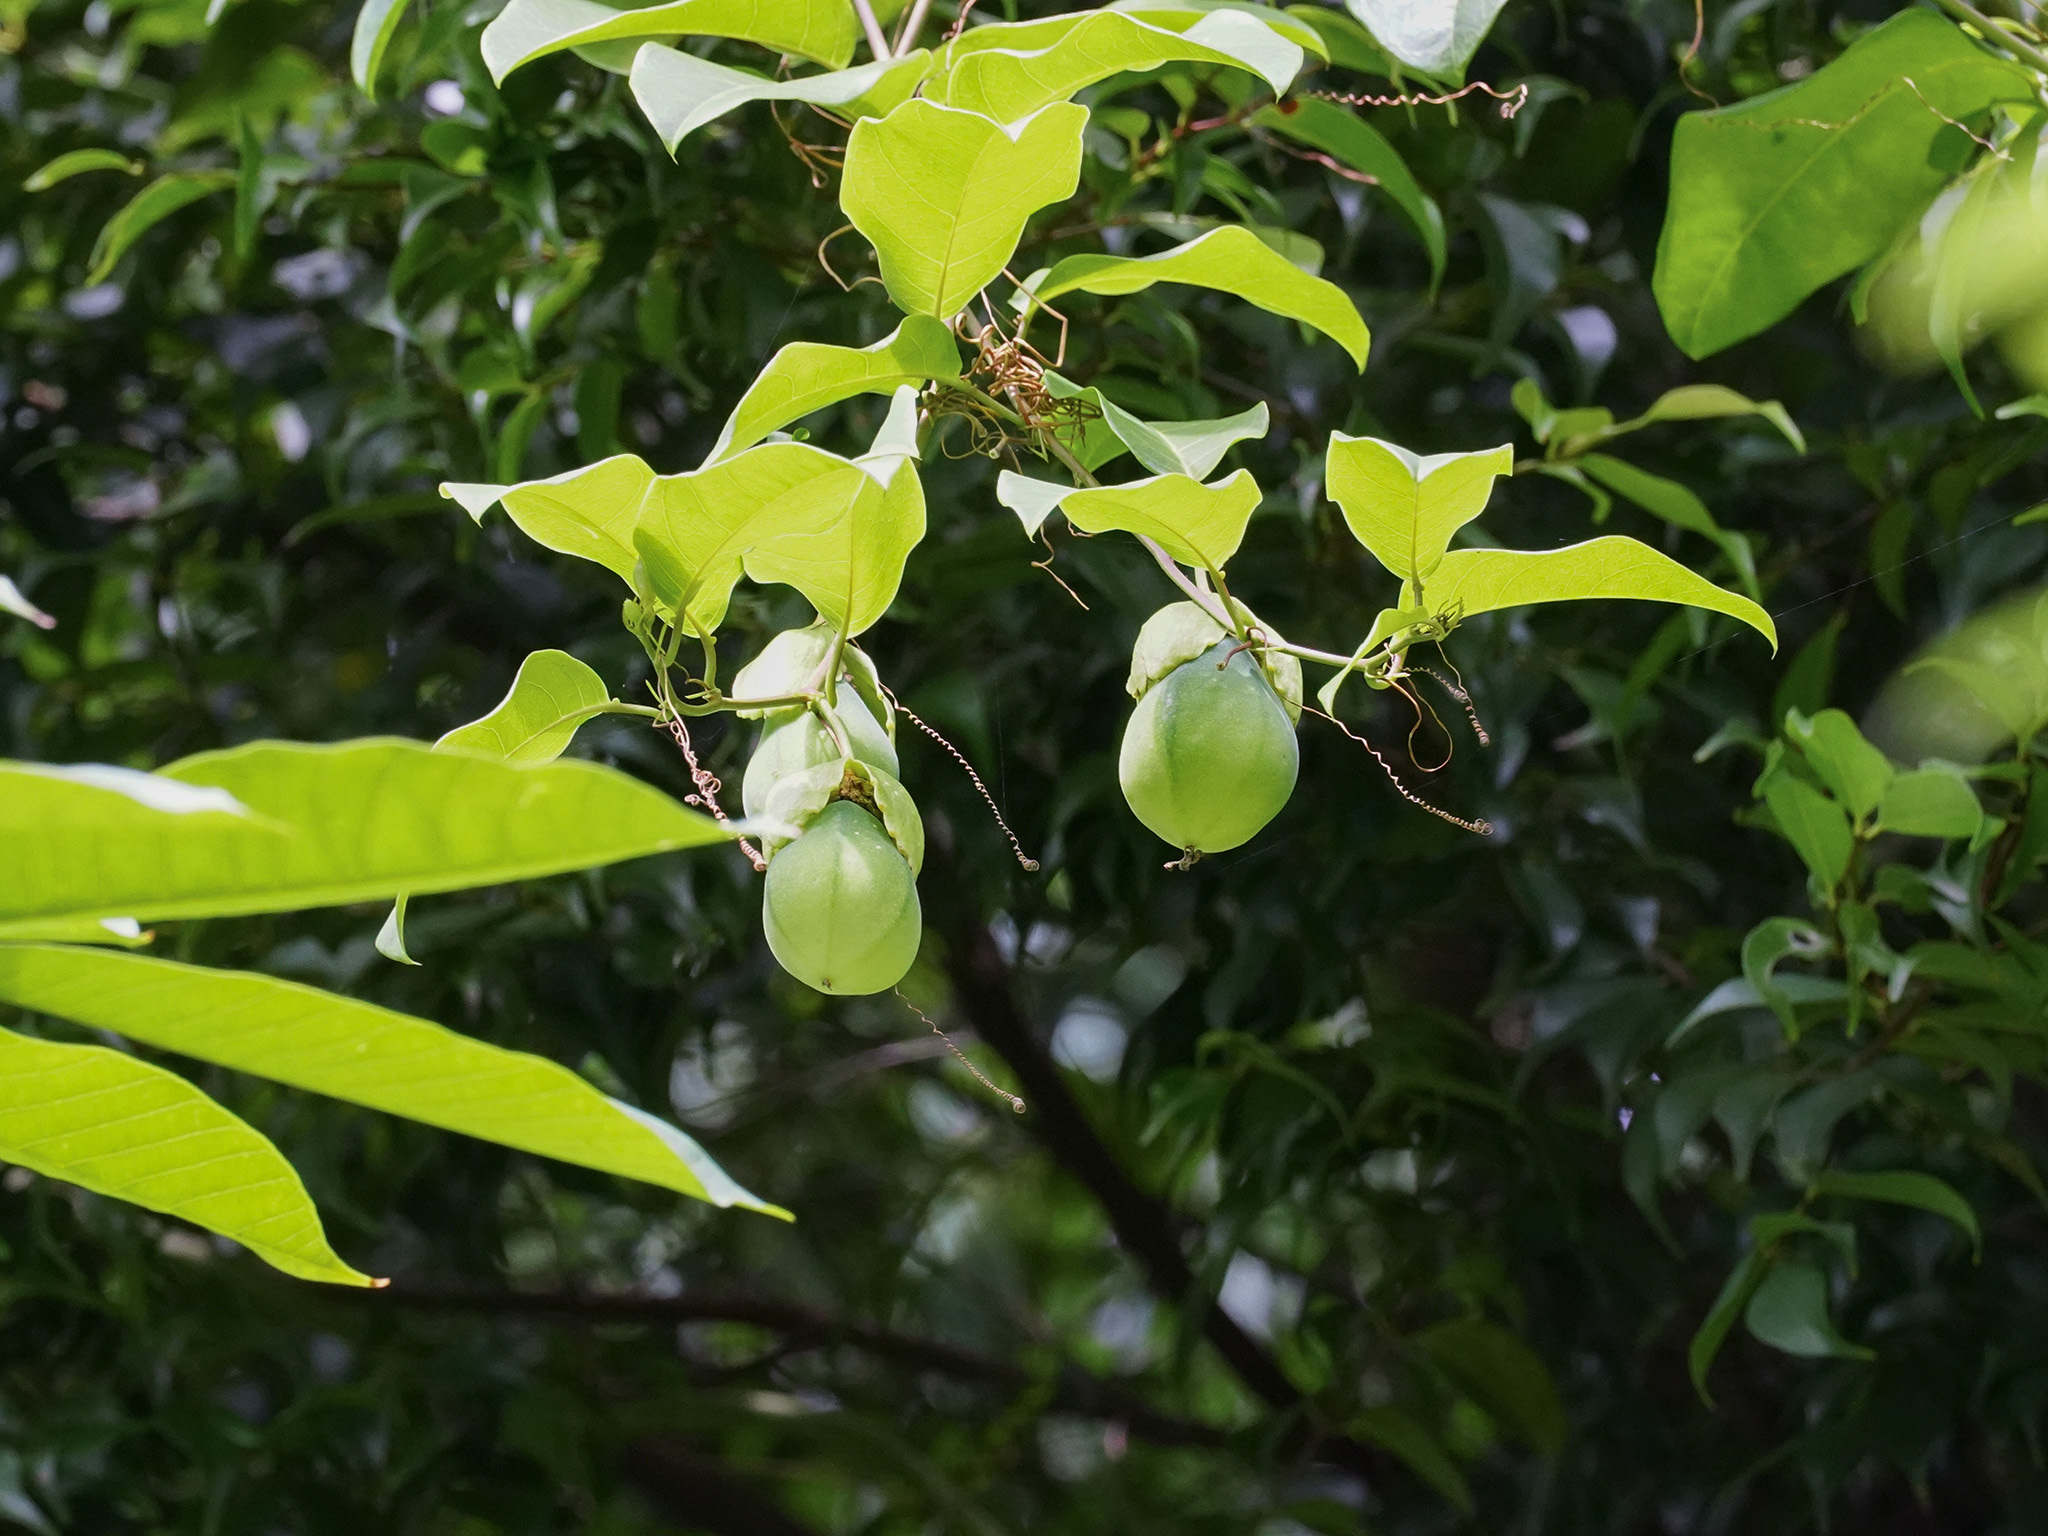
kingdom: Plantae
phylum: Tracheophyta
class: Magnoliopsida
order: Malpighiales
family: Passifloraceae
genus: Passiflora
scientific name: Passiflora laurifolia
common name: Bell apple
